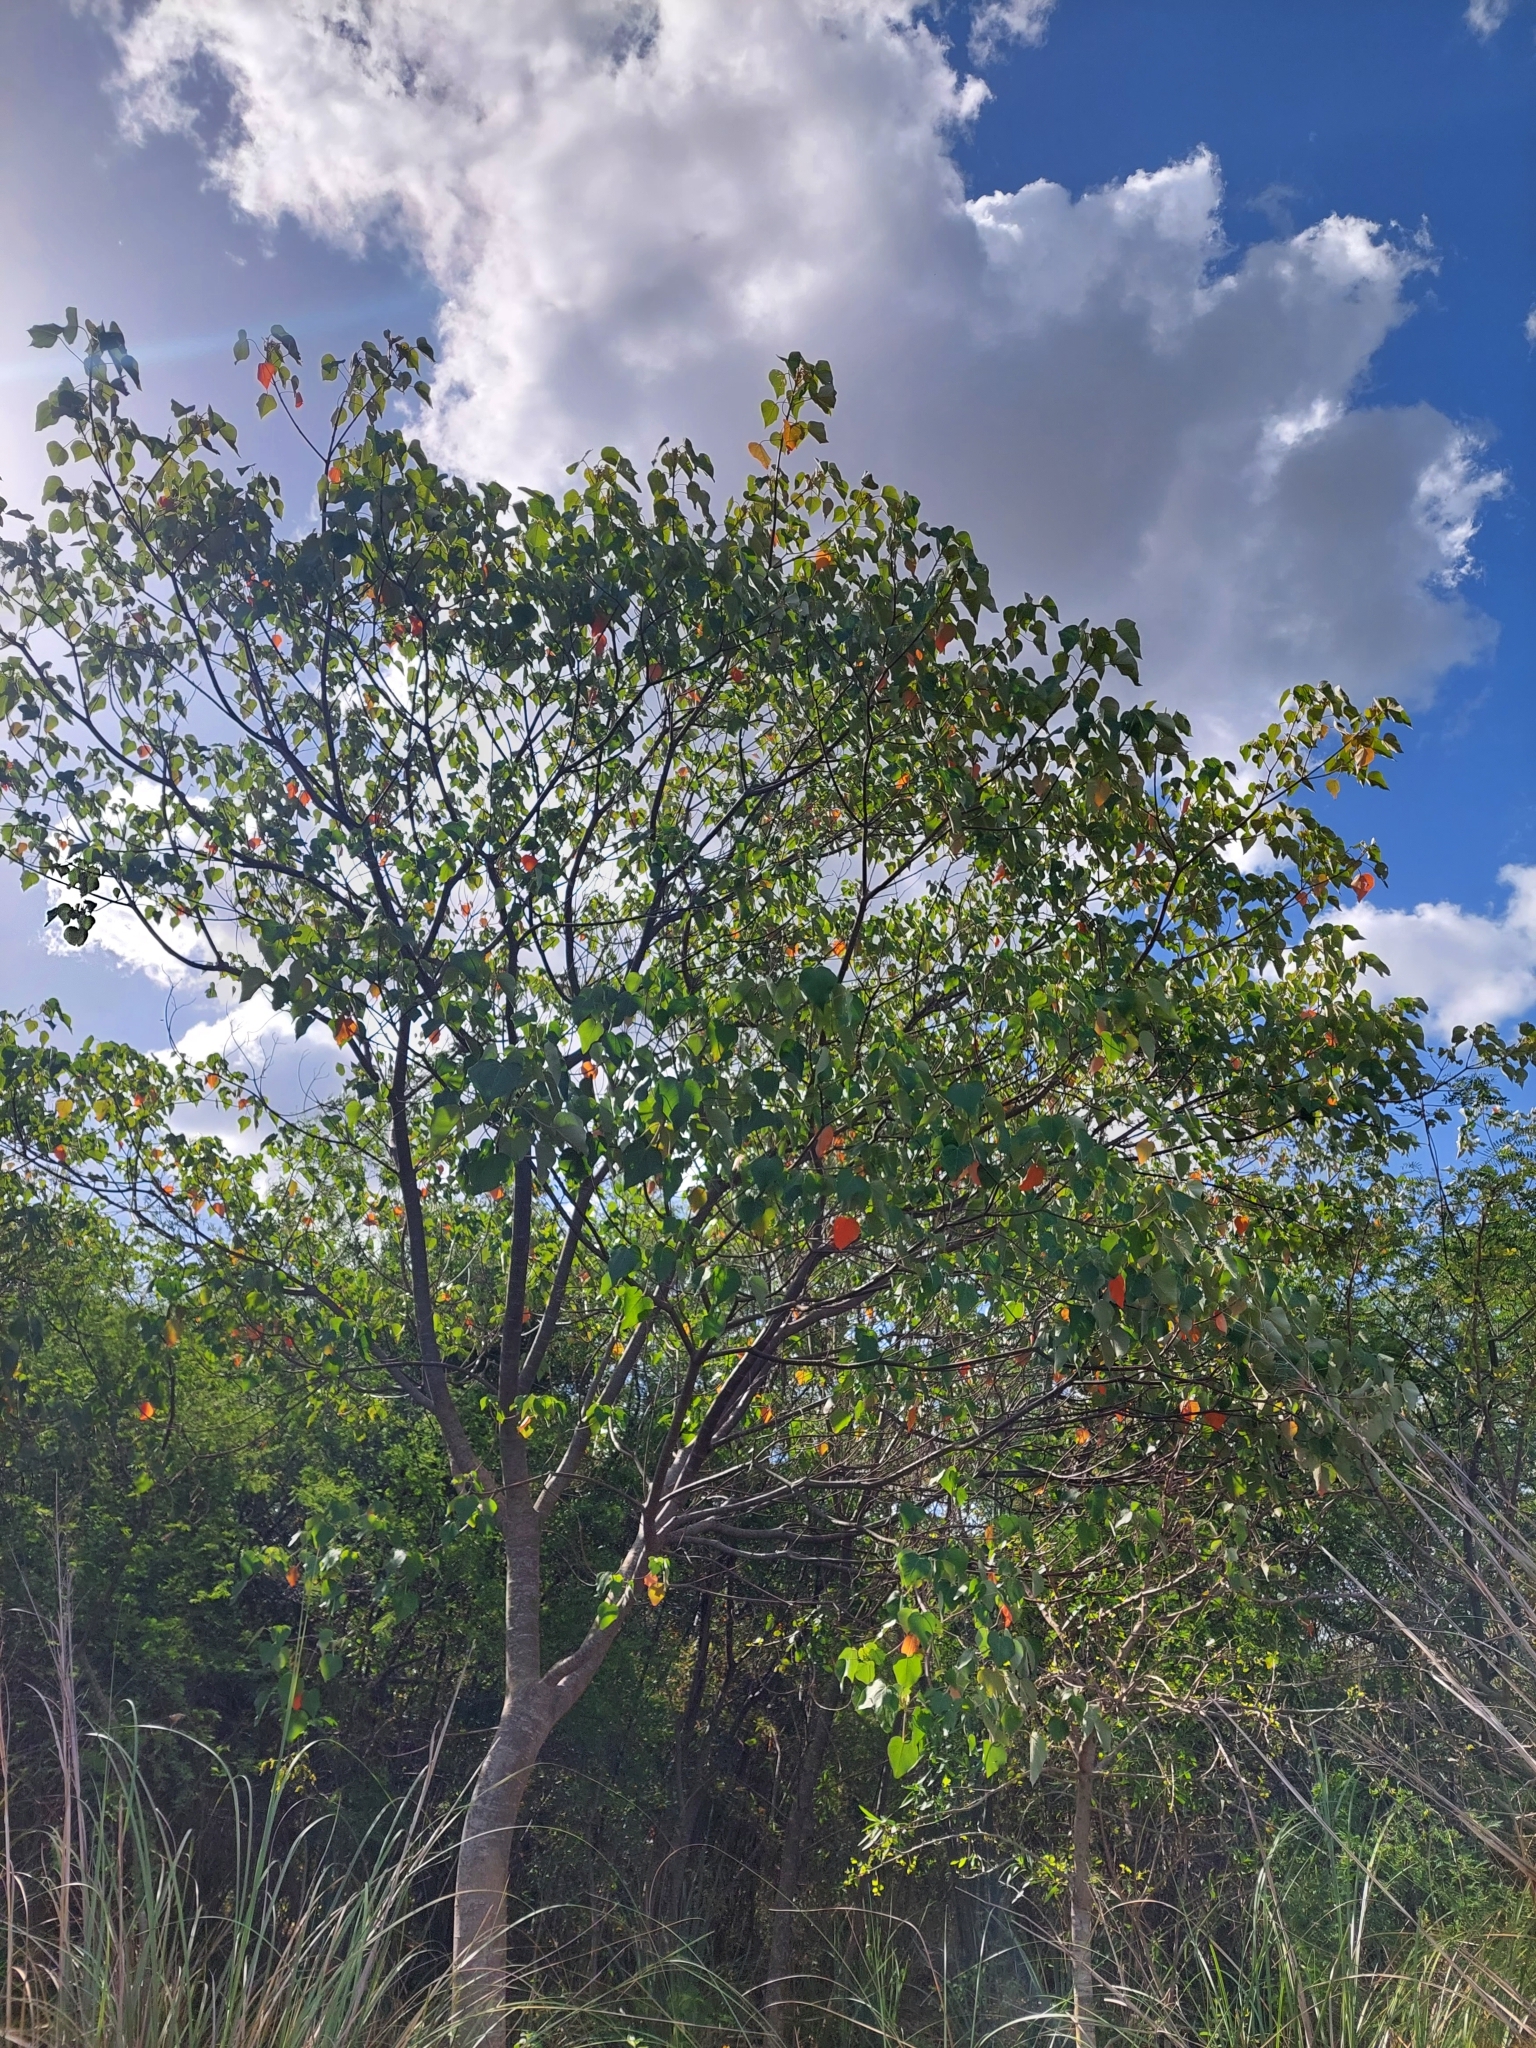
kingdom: Plantae
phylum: Tracheophyta
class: Magnoliopsida
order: Malpighiales
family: Euphorbiaceae
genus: Croton
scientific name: Croton urucurana
